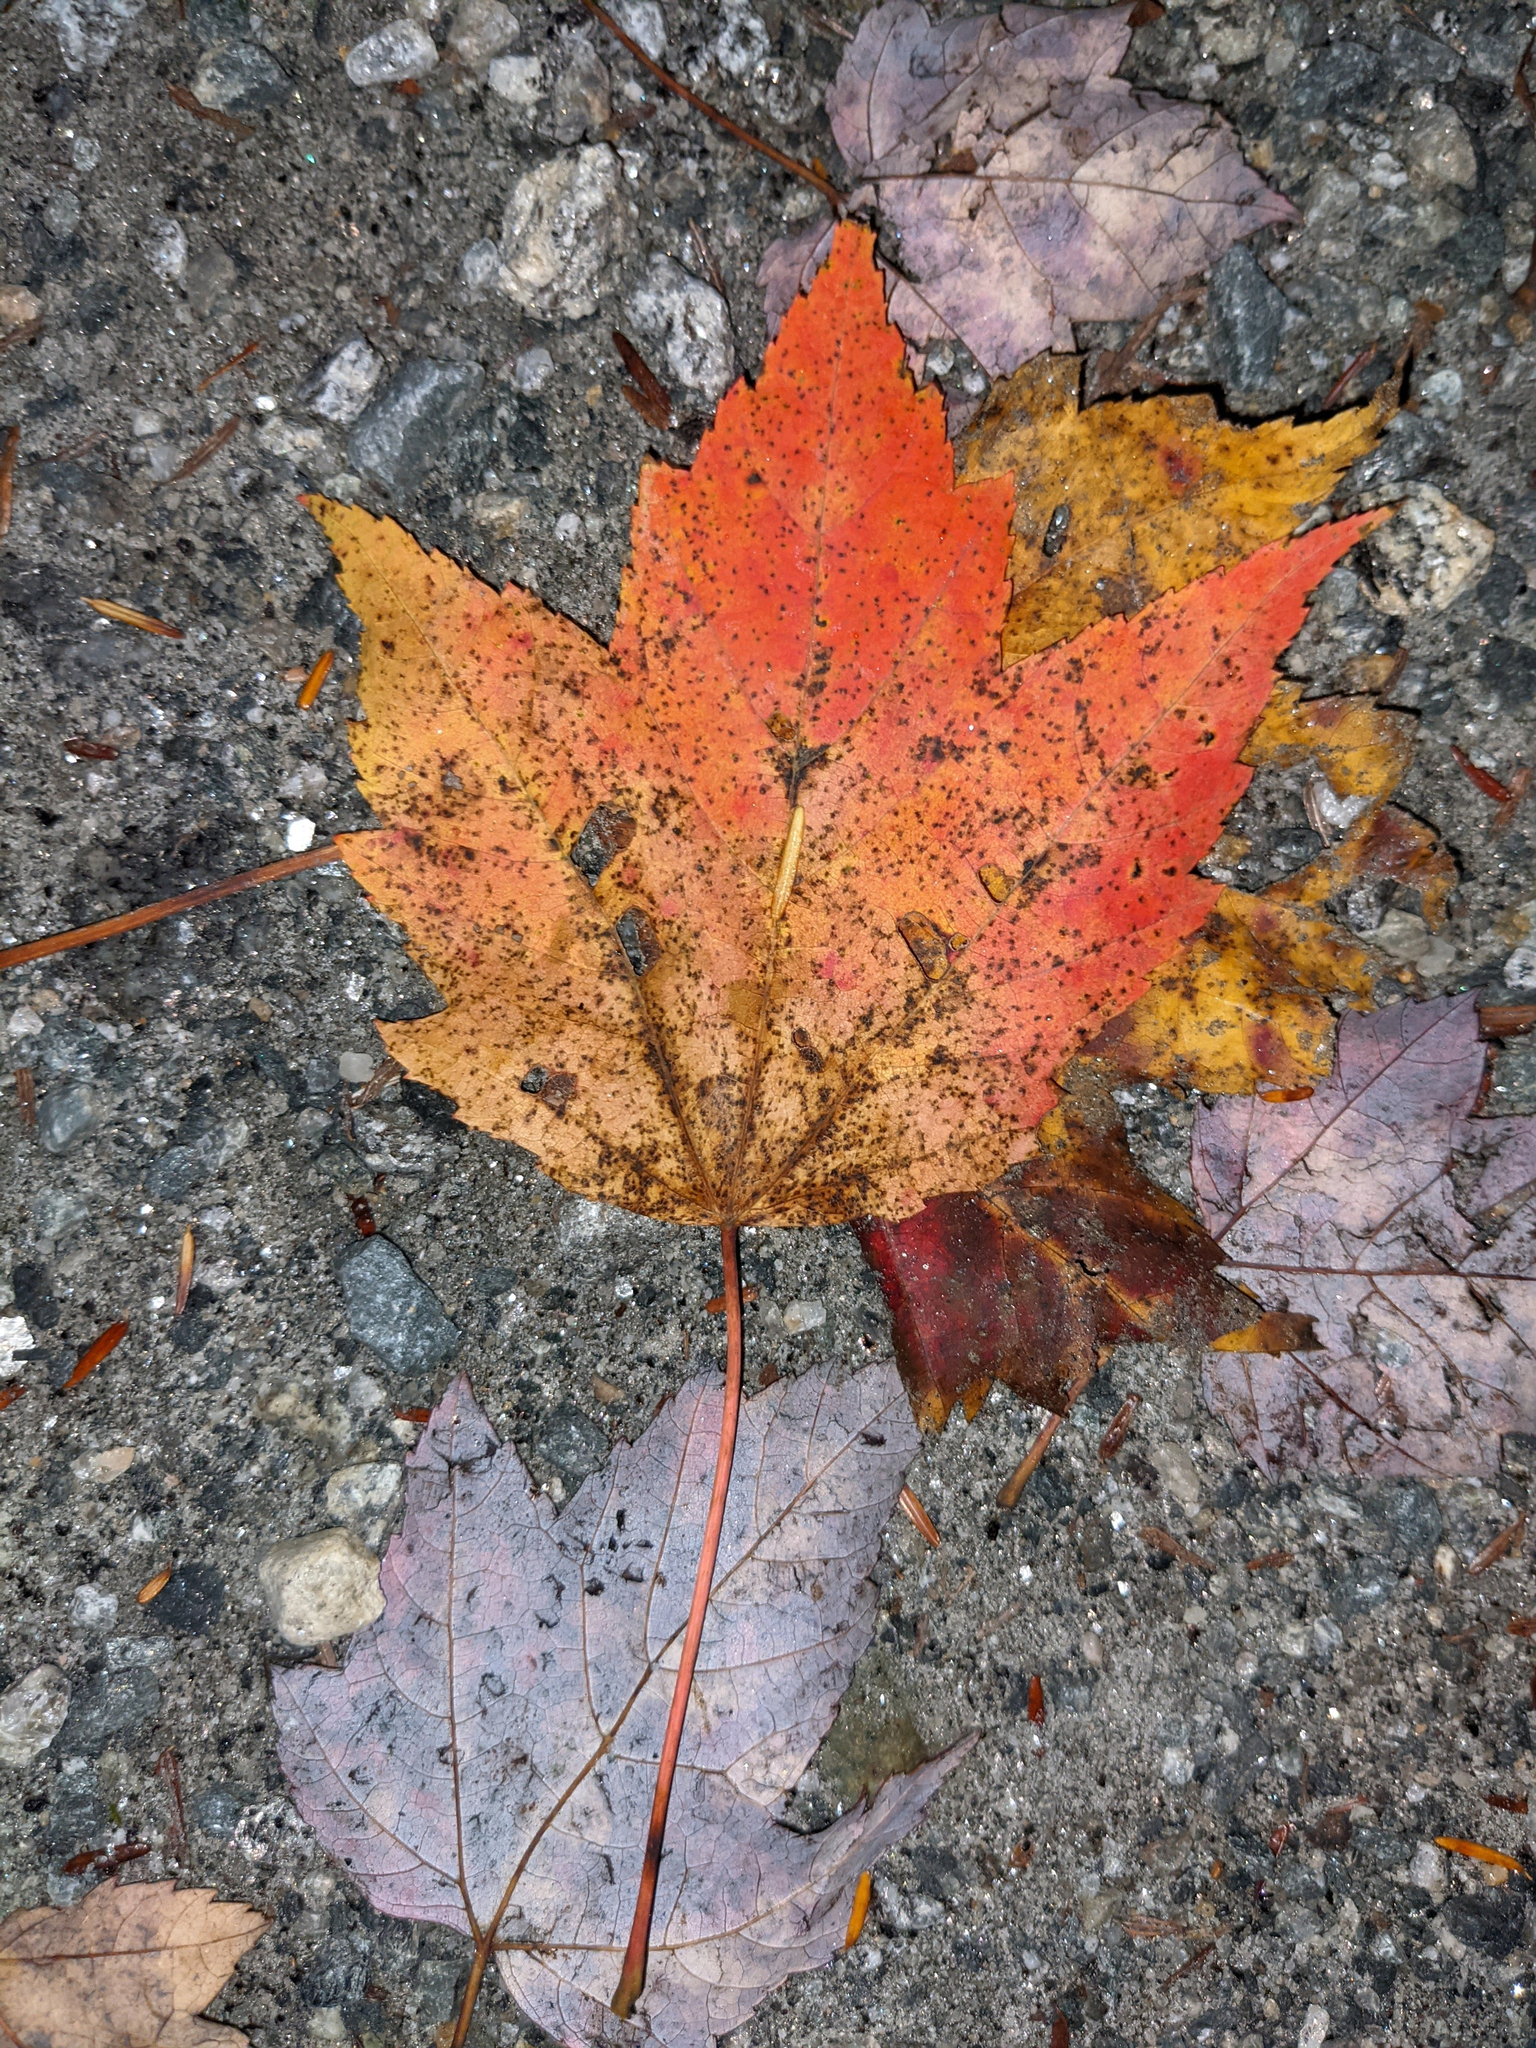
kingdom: Plantae
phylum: Tracheophyta
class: Magnoliopsida
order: Sapindales
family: Sapindaceae
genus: Acer
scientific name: Acer rubrum
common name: Red maple
